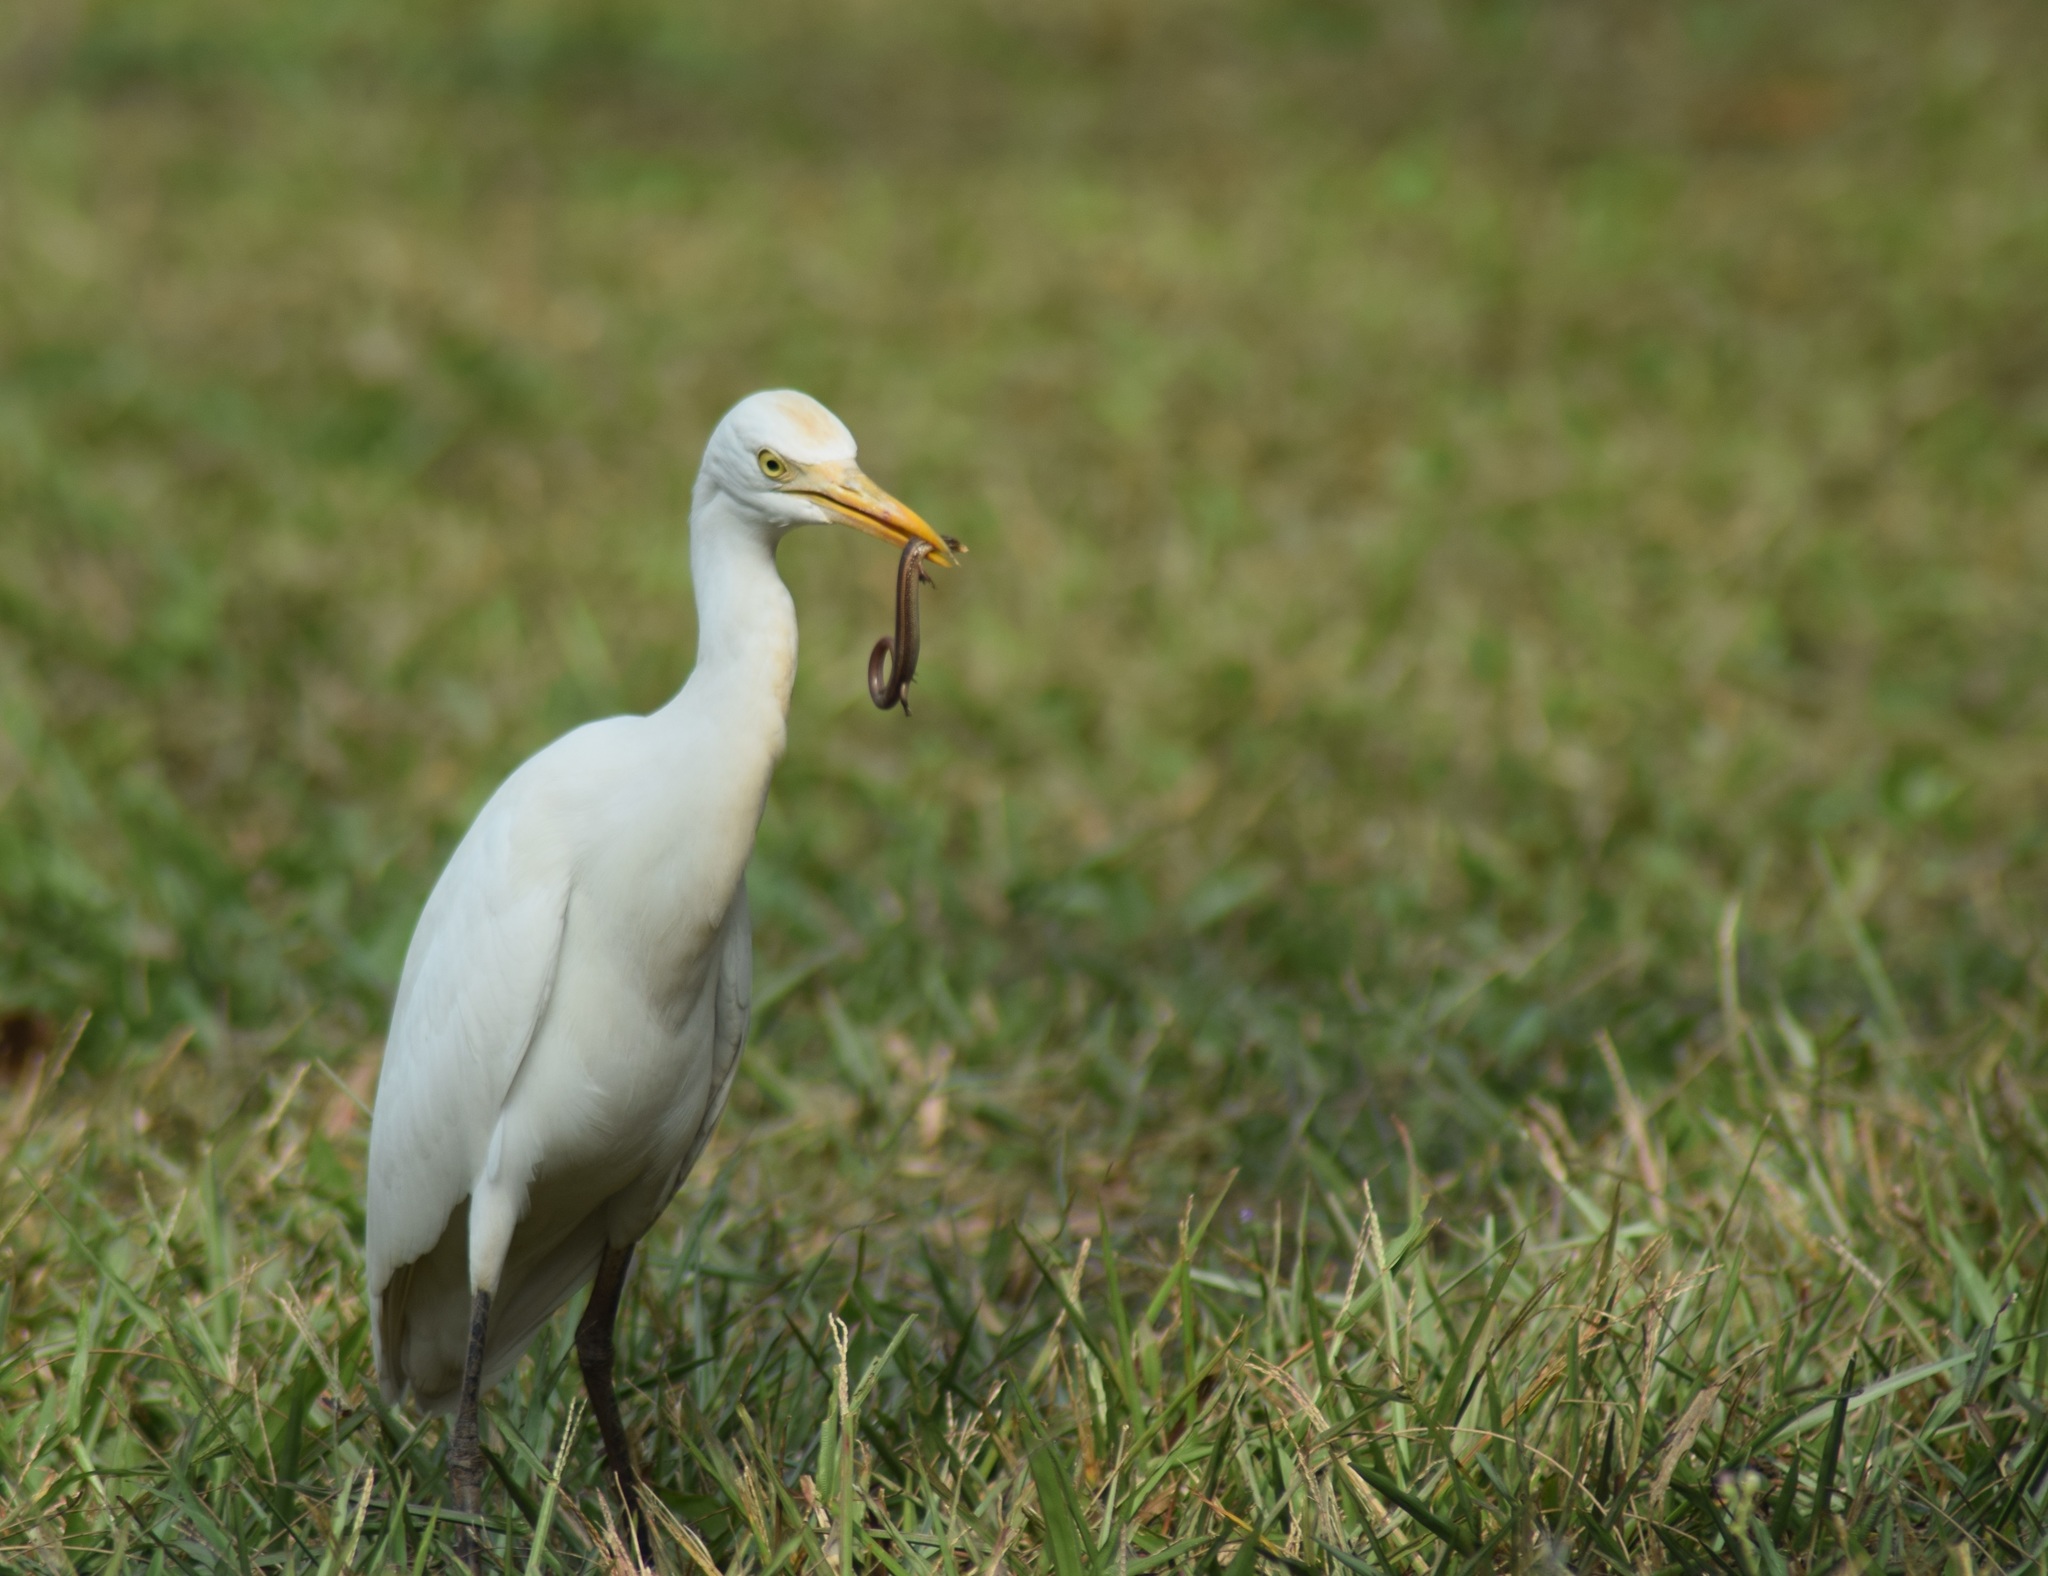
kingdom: Animalia
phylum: Chordata
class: Aves
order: Pelecaniformes
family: Ardeidae
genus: Bubulcus
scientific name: Bubulcus coromandus
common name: Eastern cattle egret
